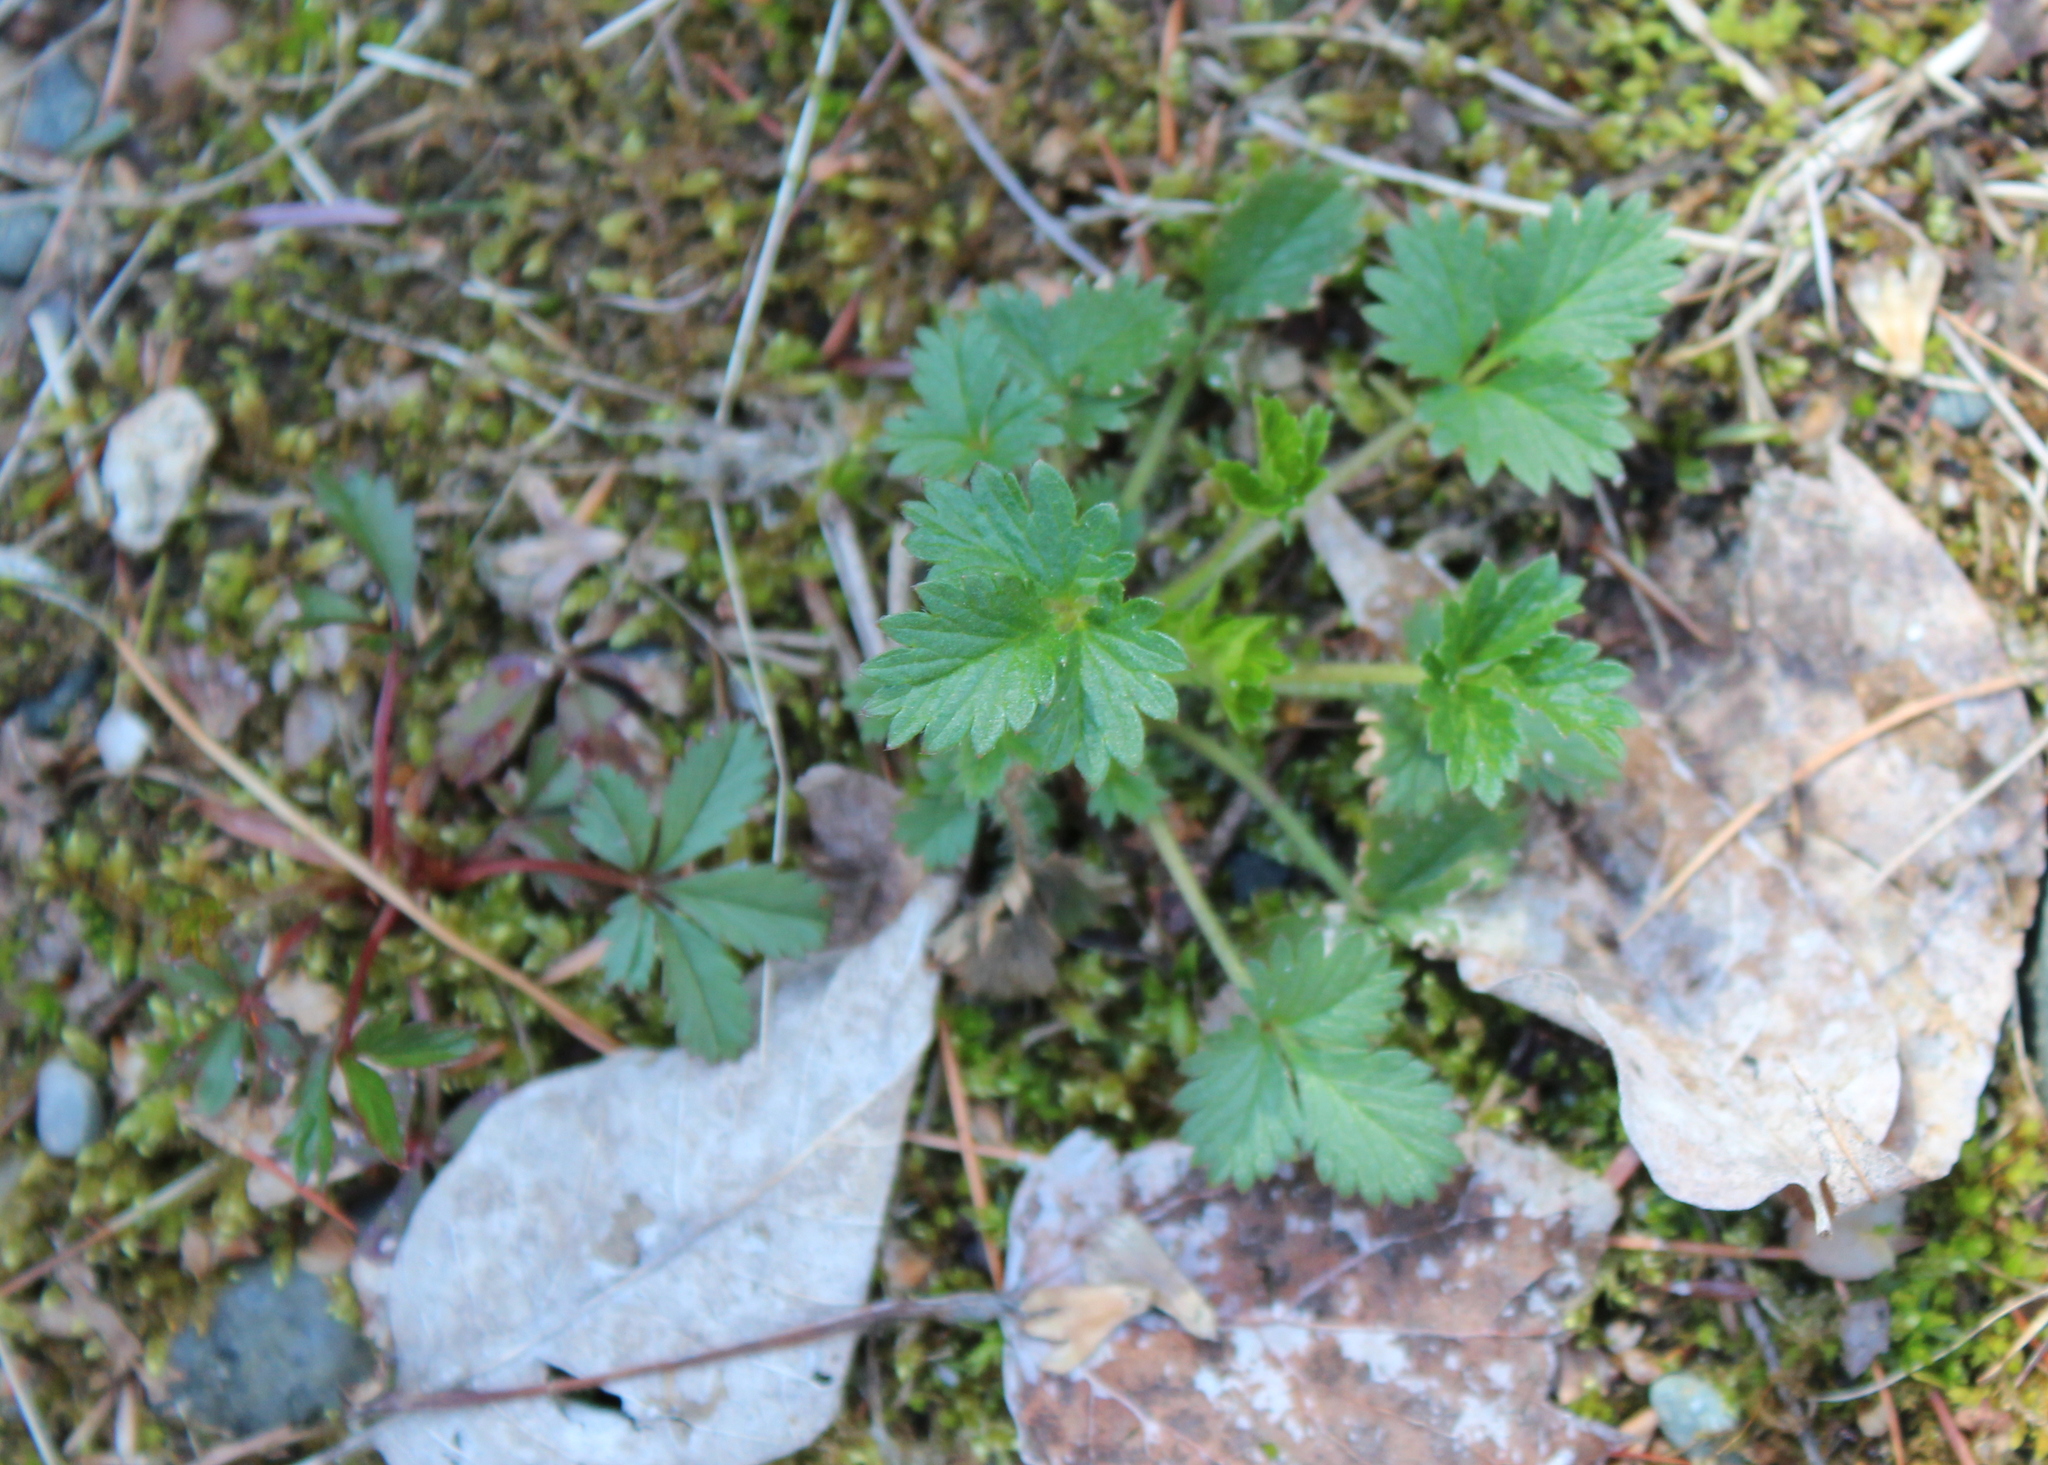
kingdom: Plantae
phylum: Tracheophyta
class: Magnoliopsida
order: Rosales
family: Rosaceae
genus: Potentilla
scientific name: Potentilla norvegica
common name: Ternate-leaved cinquefoil
